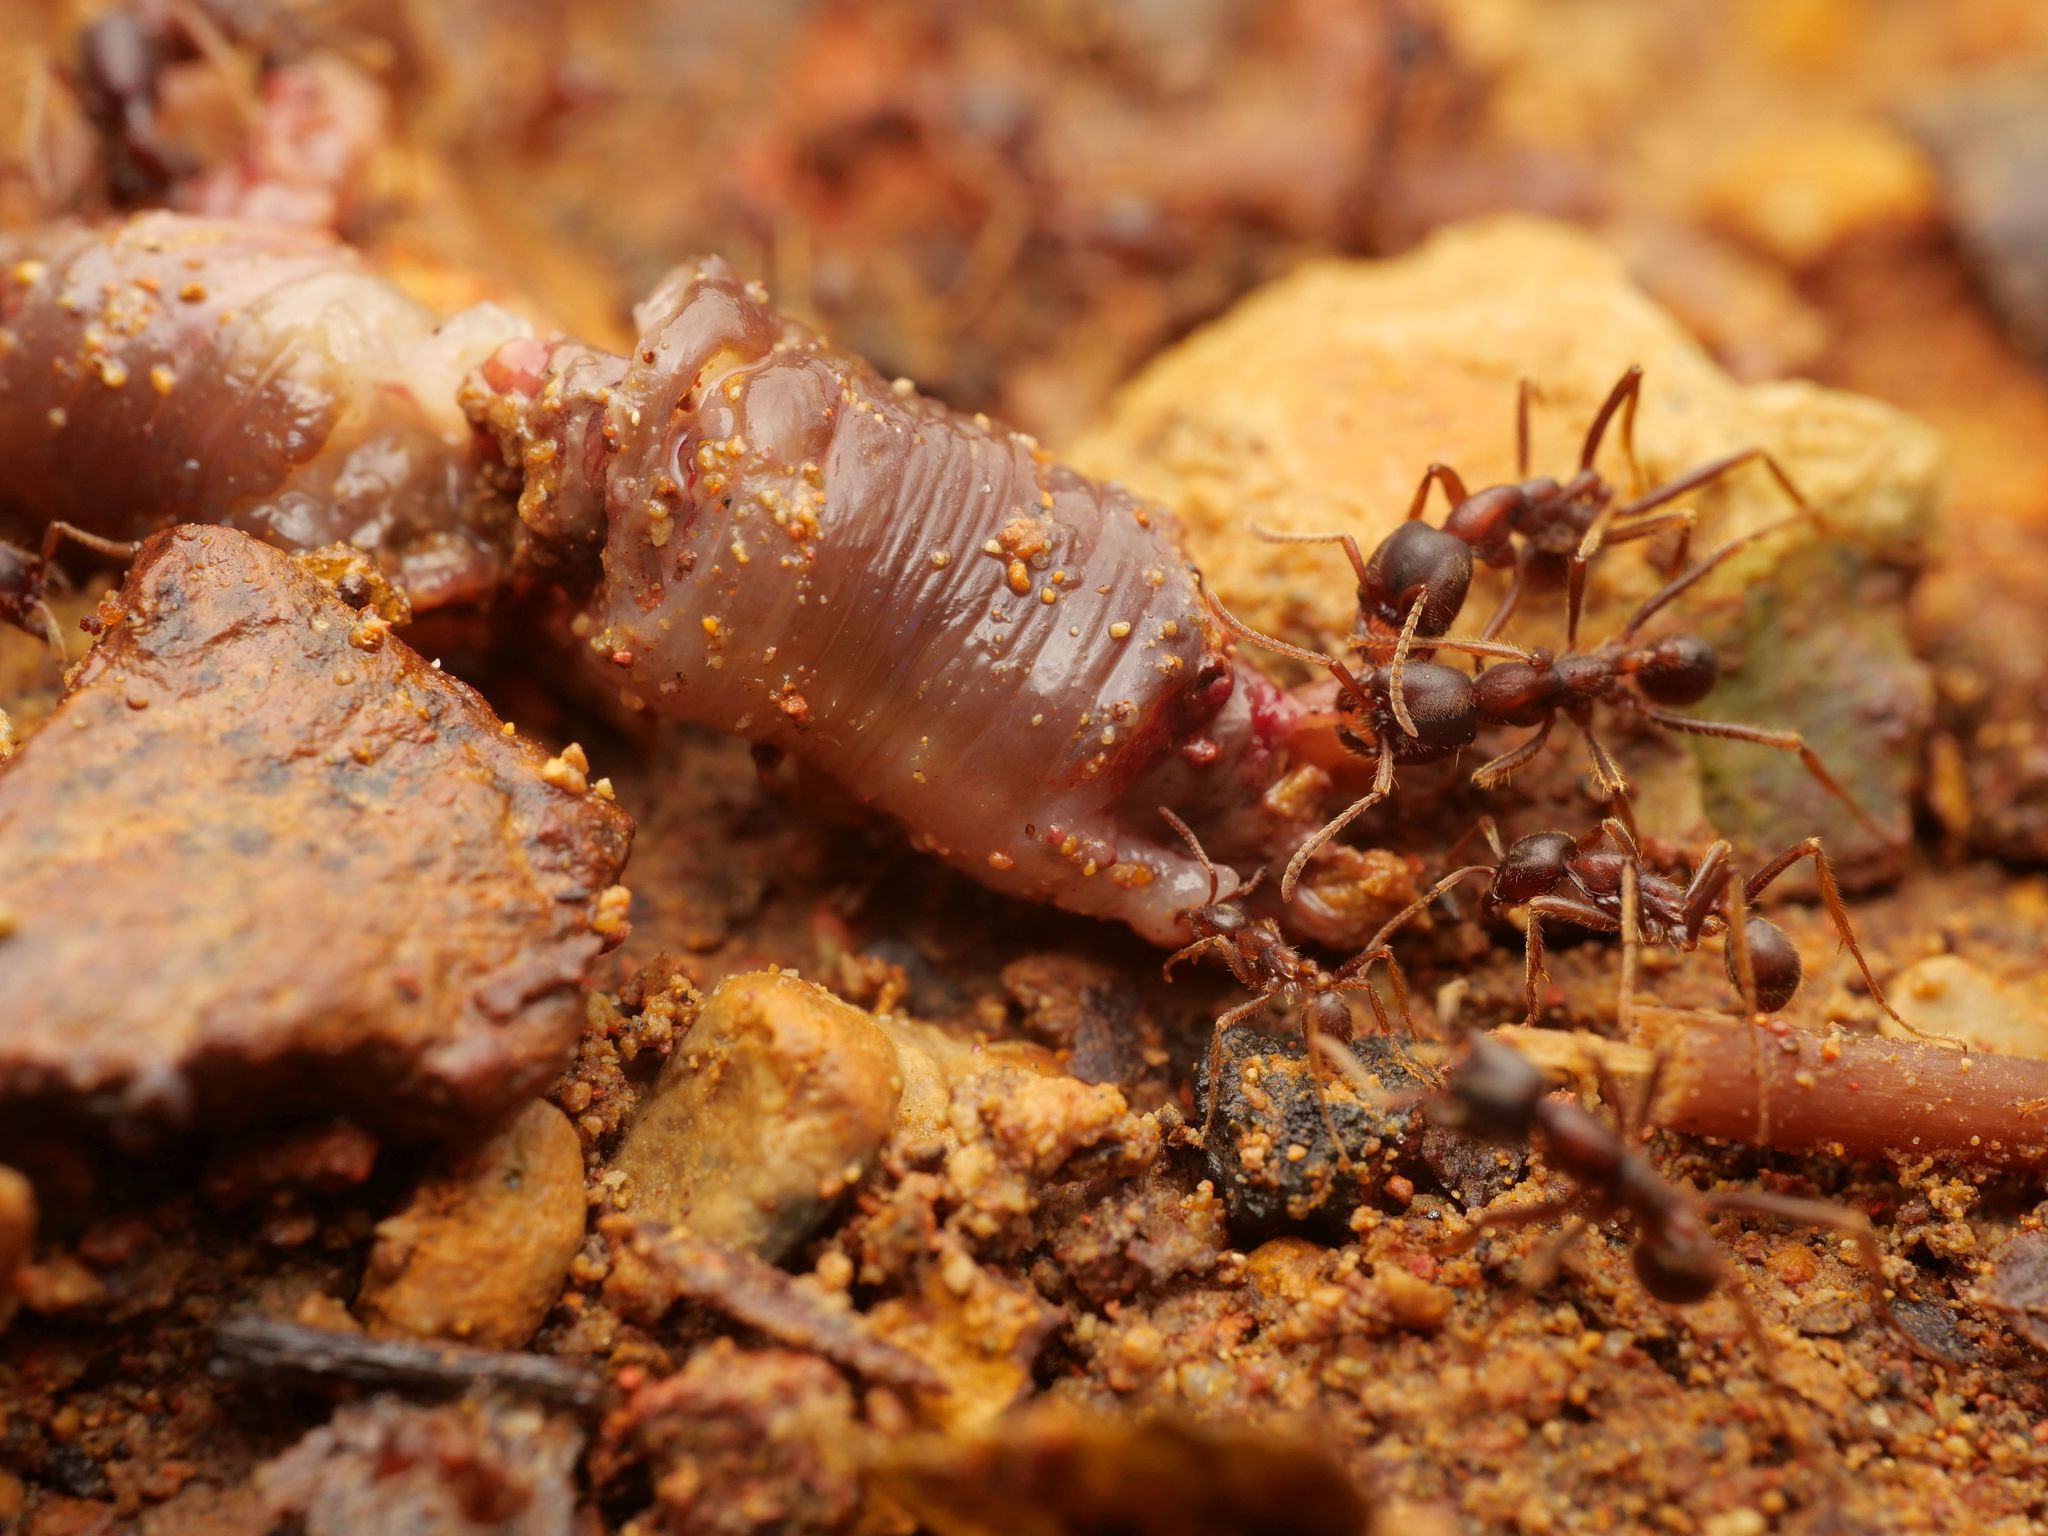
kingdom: Animalia
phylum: Arthropoda
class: Insecta
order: Hymenoptera
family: Formicidae
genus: Labidus
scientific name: Labidus spininodis
